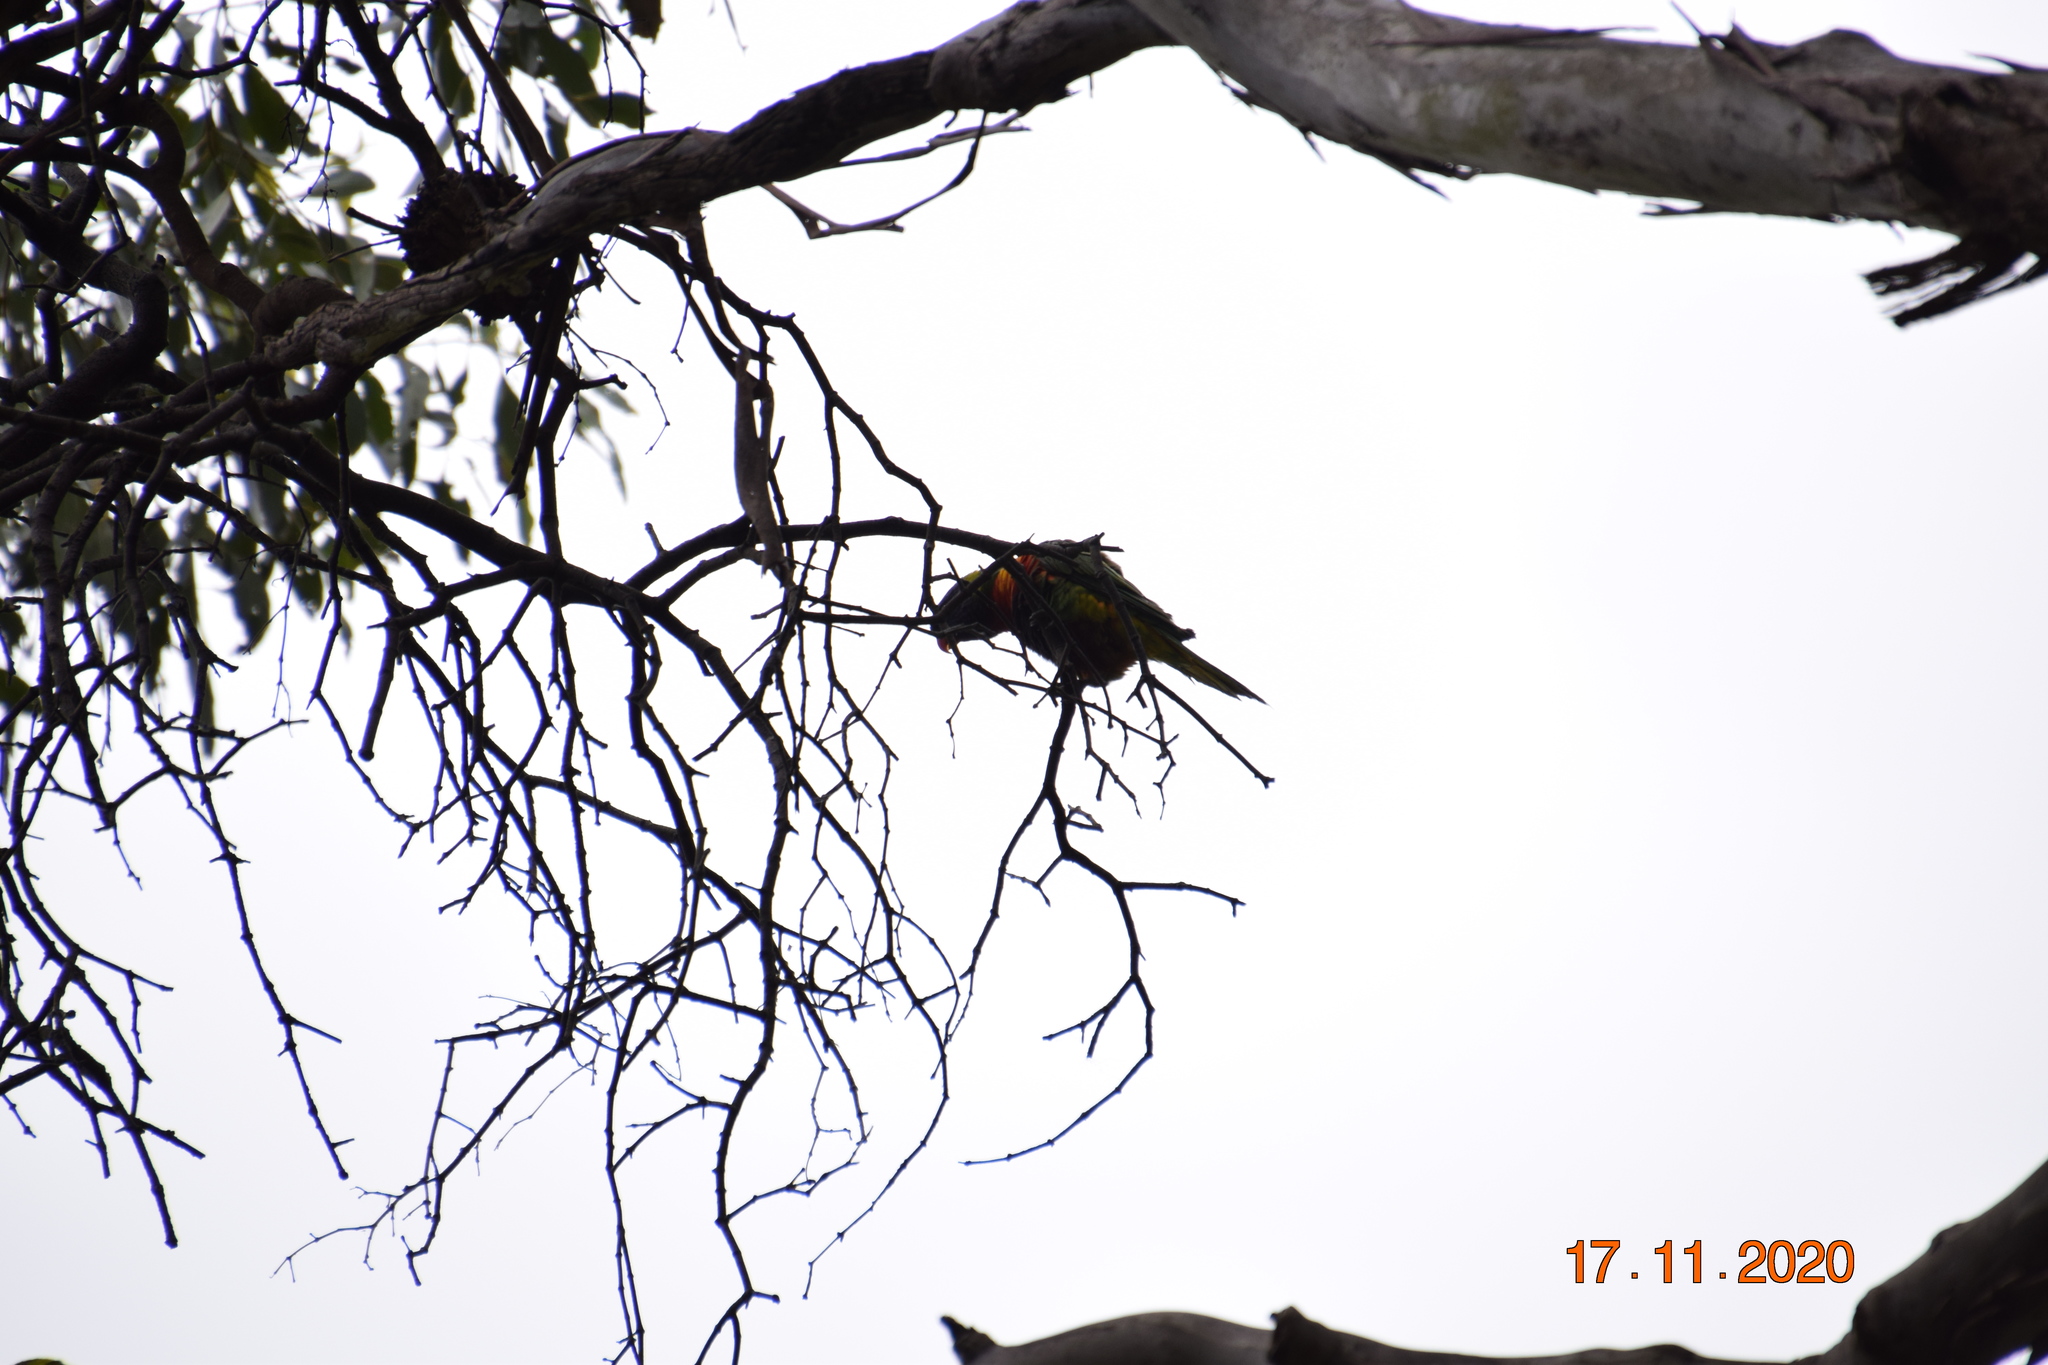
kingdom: Animalia
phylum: Chordata
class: Aves
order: Psittaciformes
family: Psittacidae
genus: Trichoglossus
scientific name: Trichoglossus haematodus
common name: Coconut lorikeet
